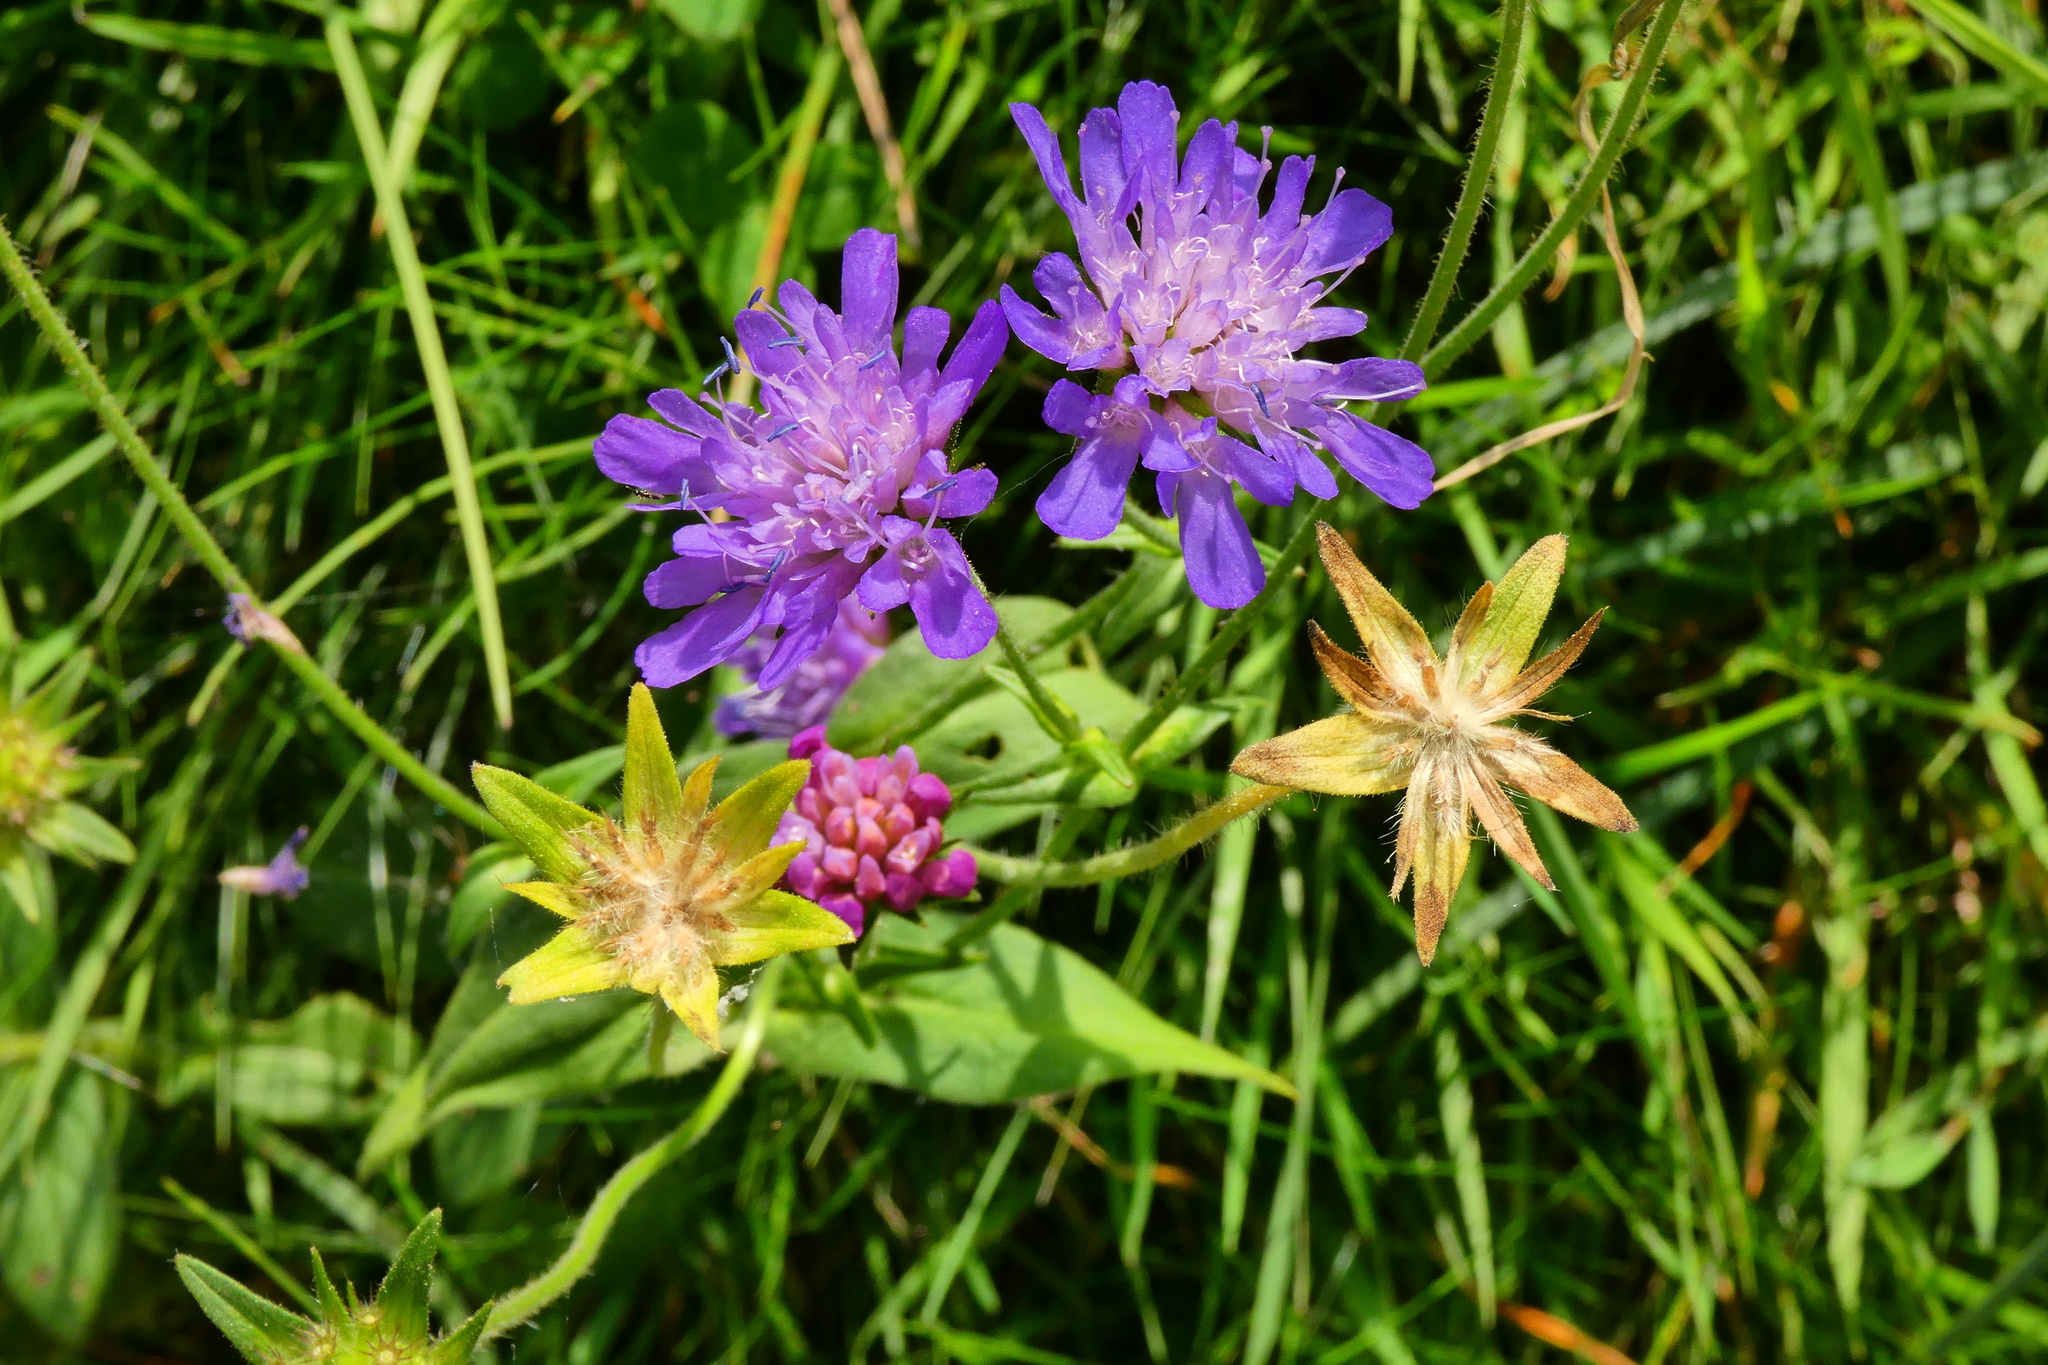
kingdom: Plantae
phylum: Tracheophyta
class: Magnoliopsida
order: Dipsacales
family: Caprifoliaceae
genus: Knautia
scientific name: Knautia dipsacifolia
